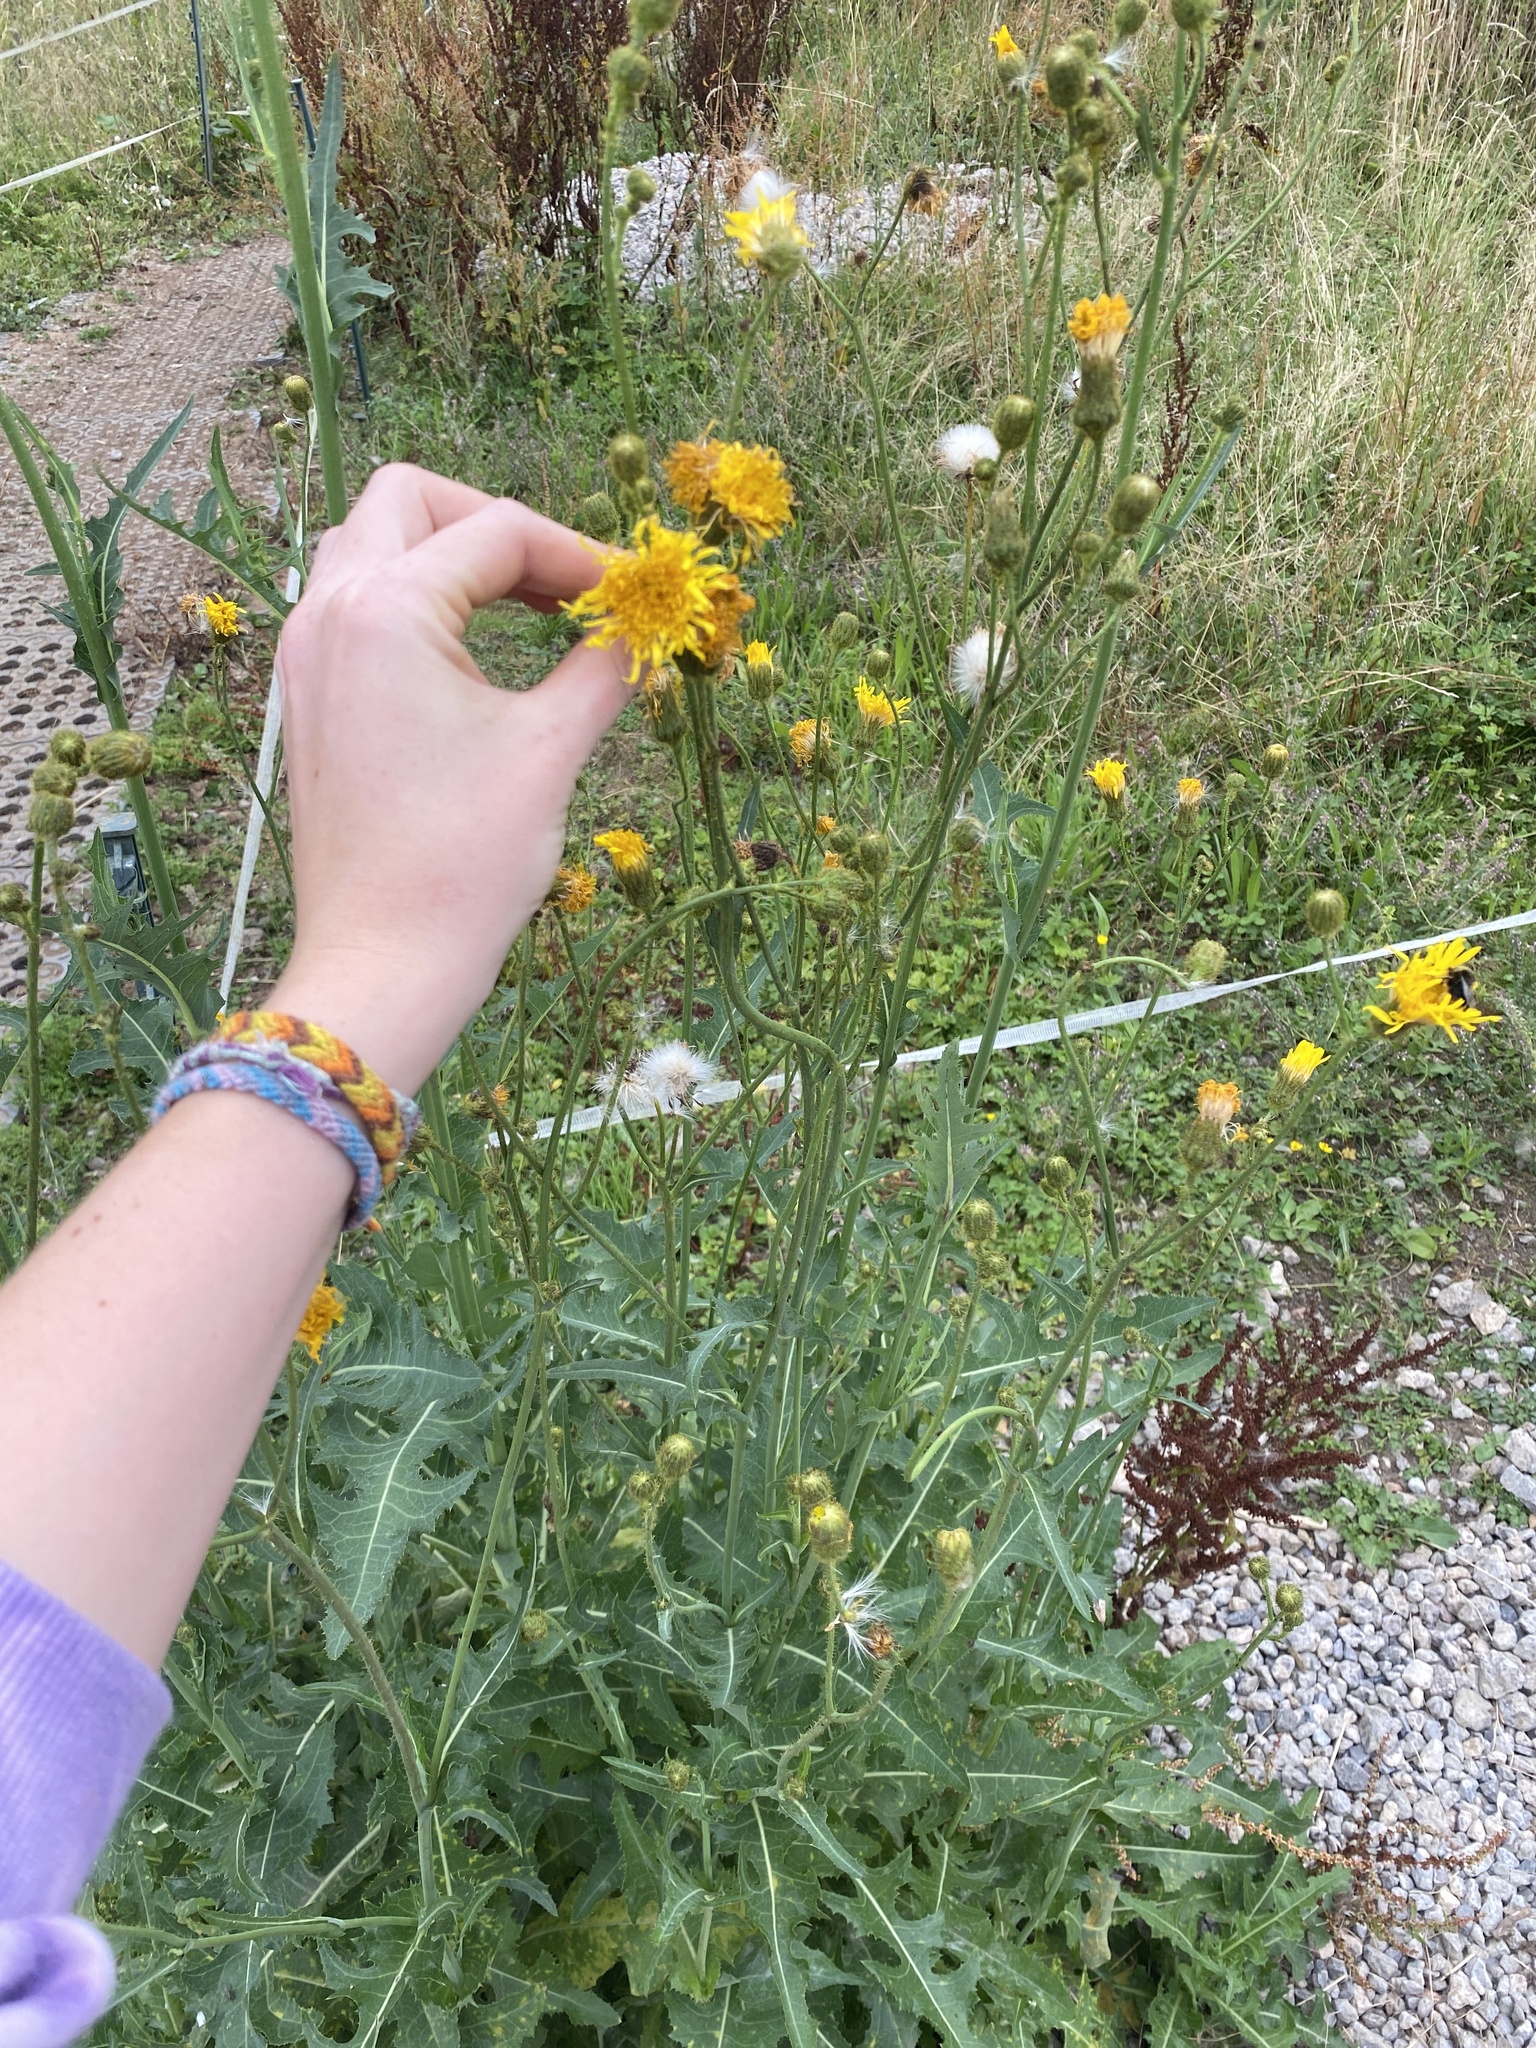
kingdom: Plantae
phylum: Tracheophyta
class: Magnoliopsida
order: Asterales
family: Asteraceae
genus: Sonchus
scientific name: Sonchus arvensis
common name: Perennial sow-thistle
